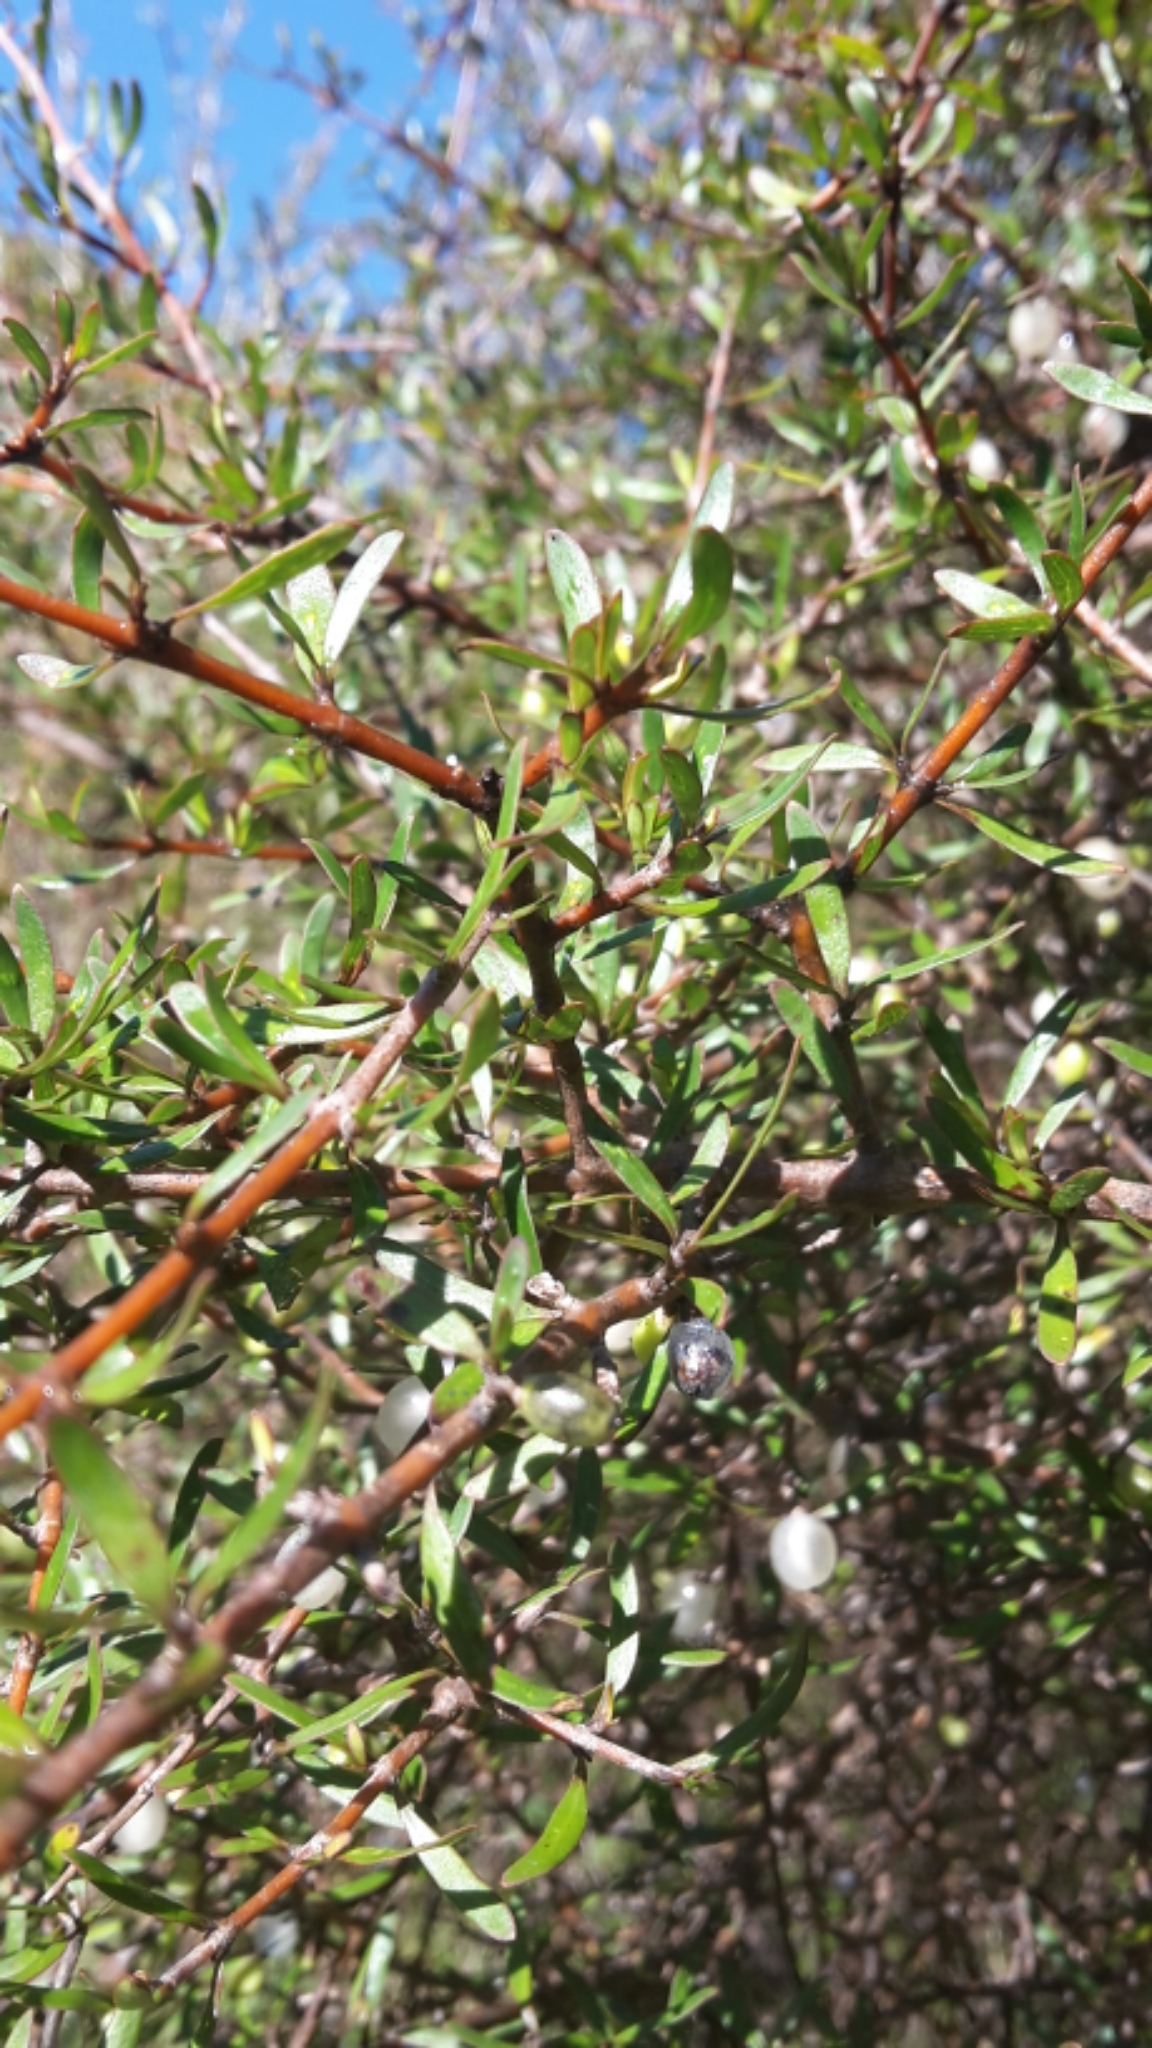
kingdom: Plantae
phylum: Tracheophyta
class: Magnoliopsida
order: Gentianales
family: Rubiaceae
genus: Coprosma
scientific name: Coprosma rugosa
